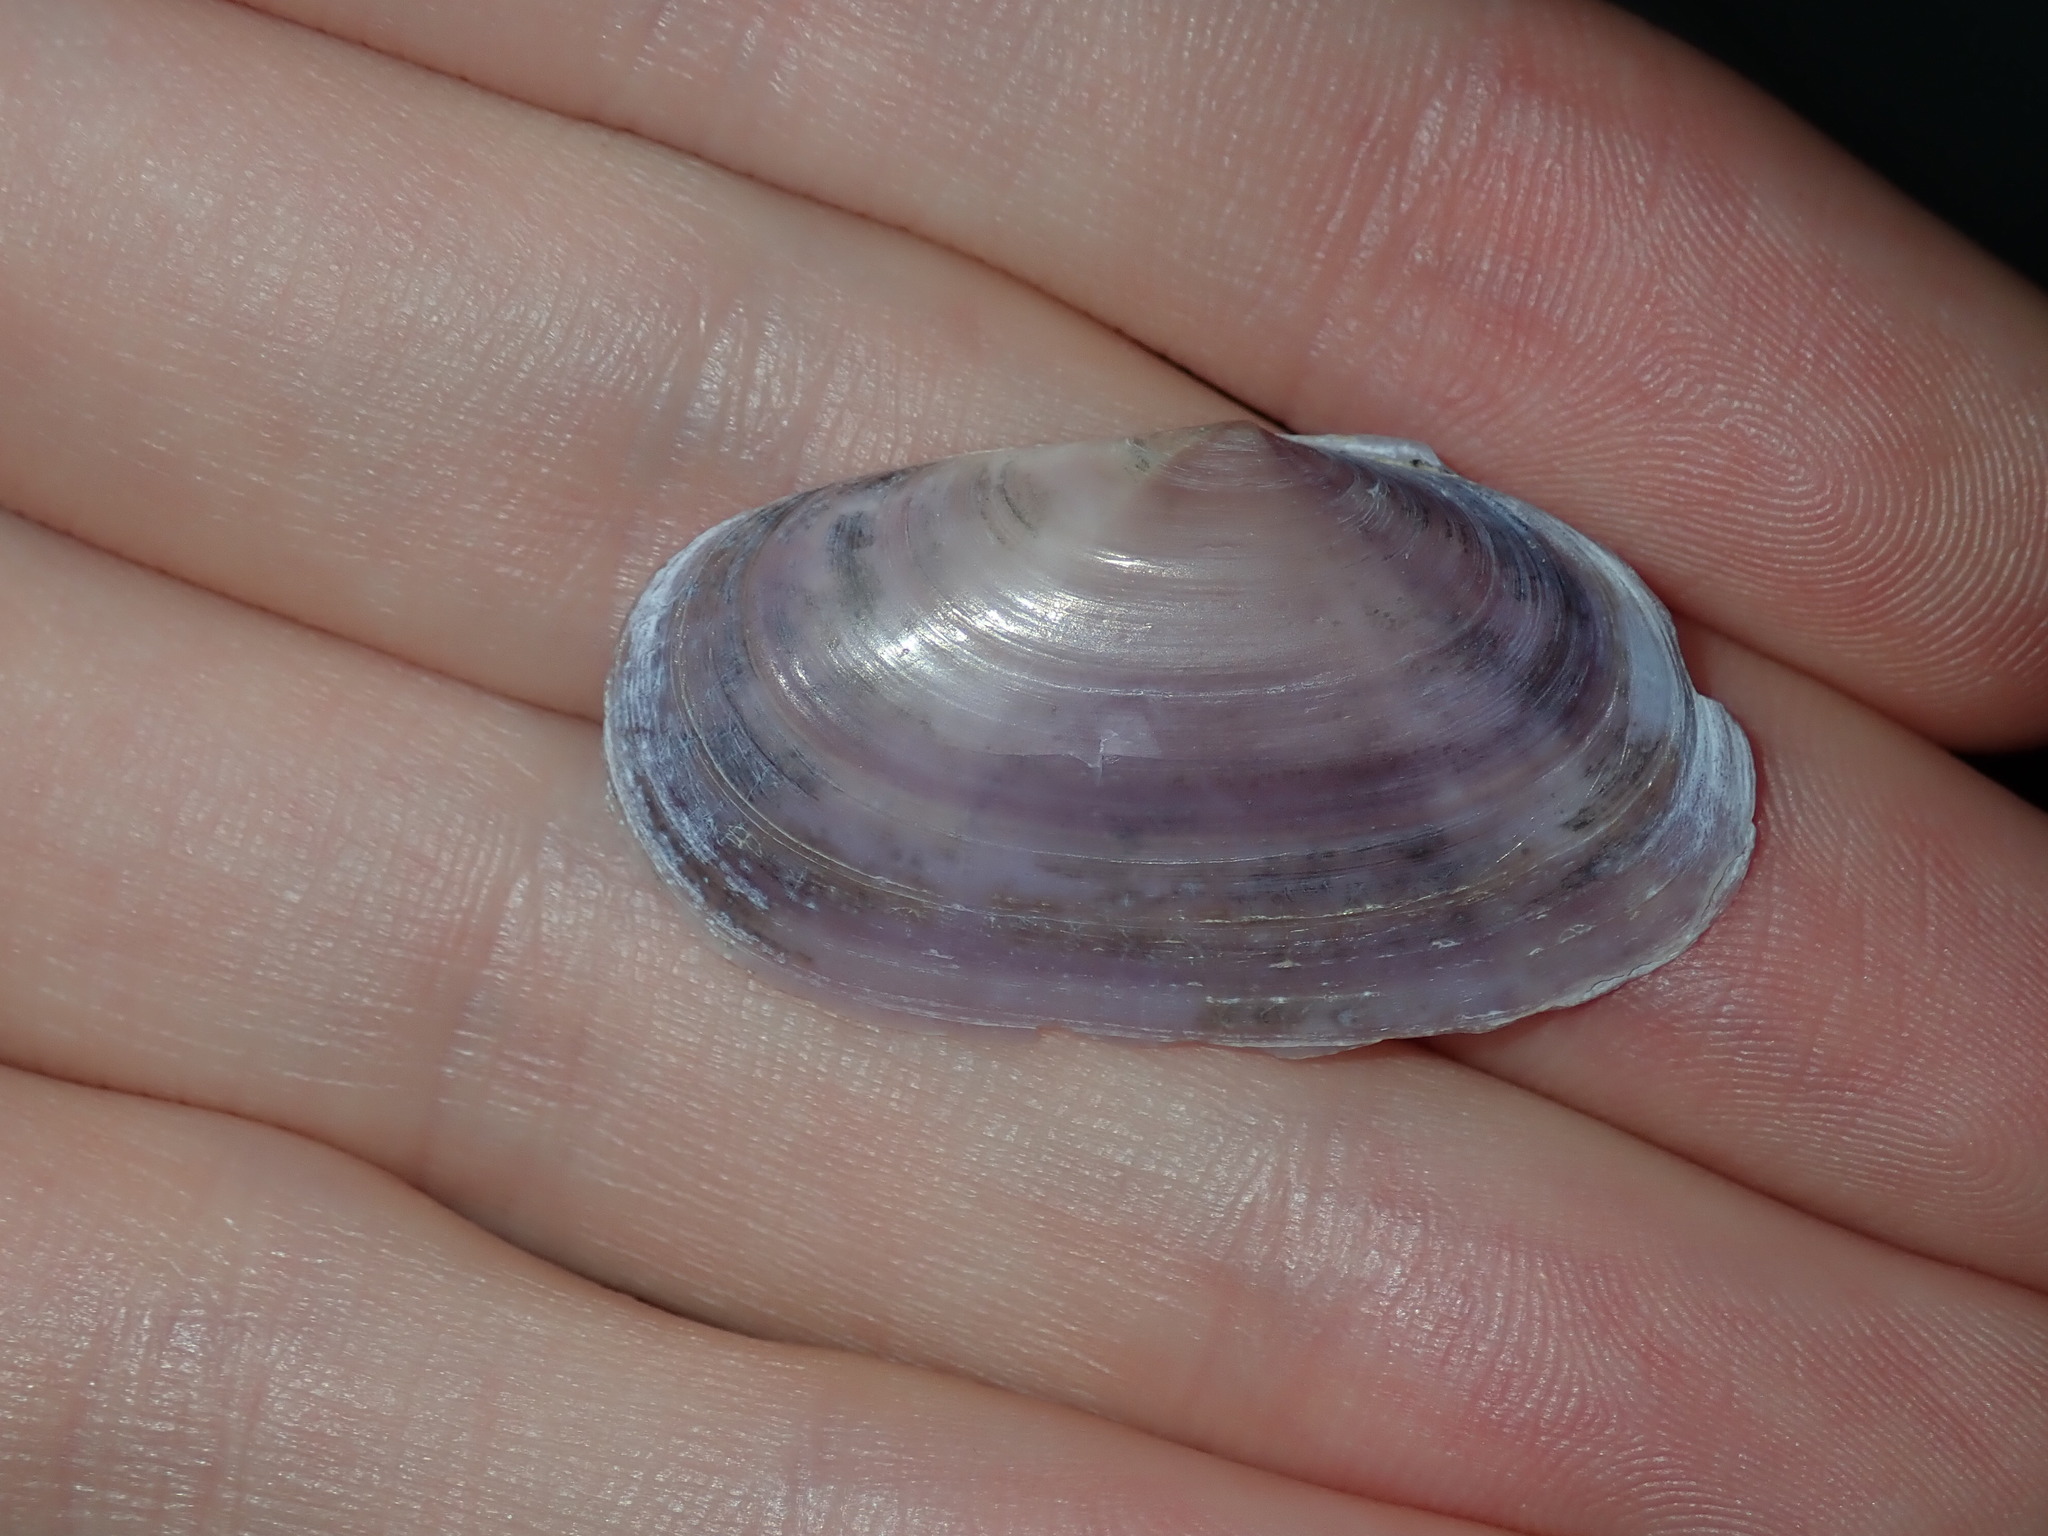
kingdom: Animalia
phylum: Mollusca
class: Bivalvia
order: Cardiida
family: Psammobiidae
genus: Hiatula
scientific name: Hiatula alba
